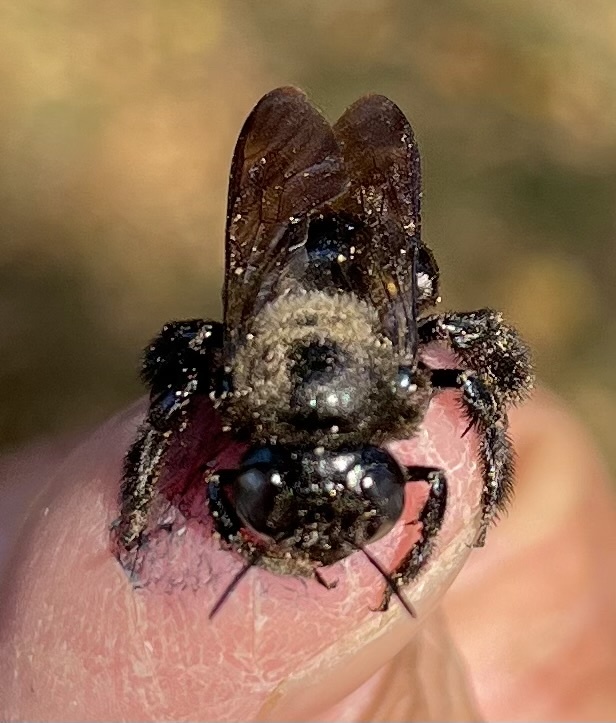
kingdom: Animalia
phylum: Arthropoda
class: Insecta
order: Hymenoptera
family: Apidae
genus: Xylocopa
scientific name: Xylocopa micans
